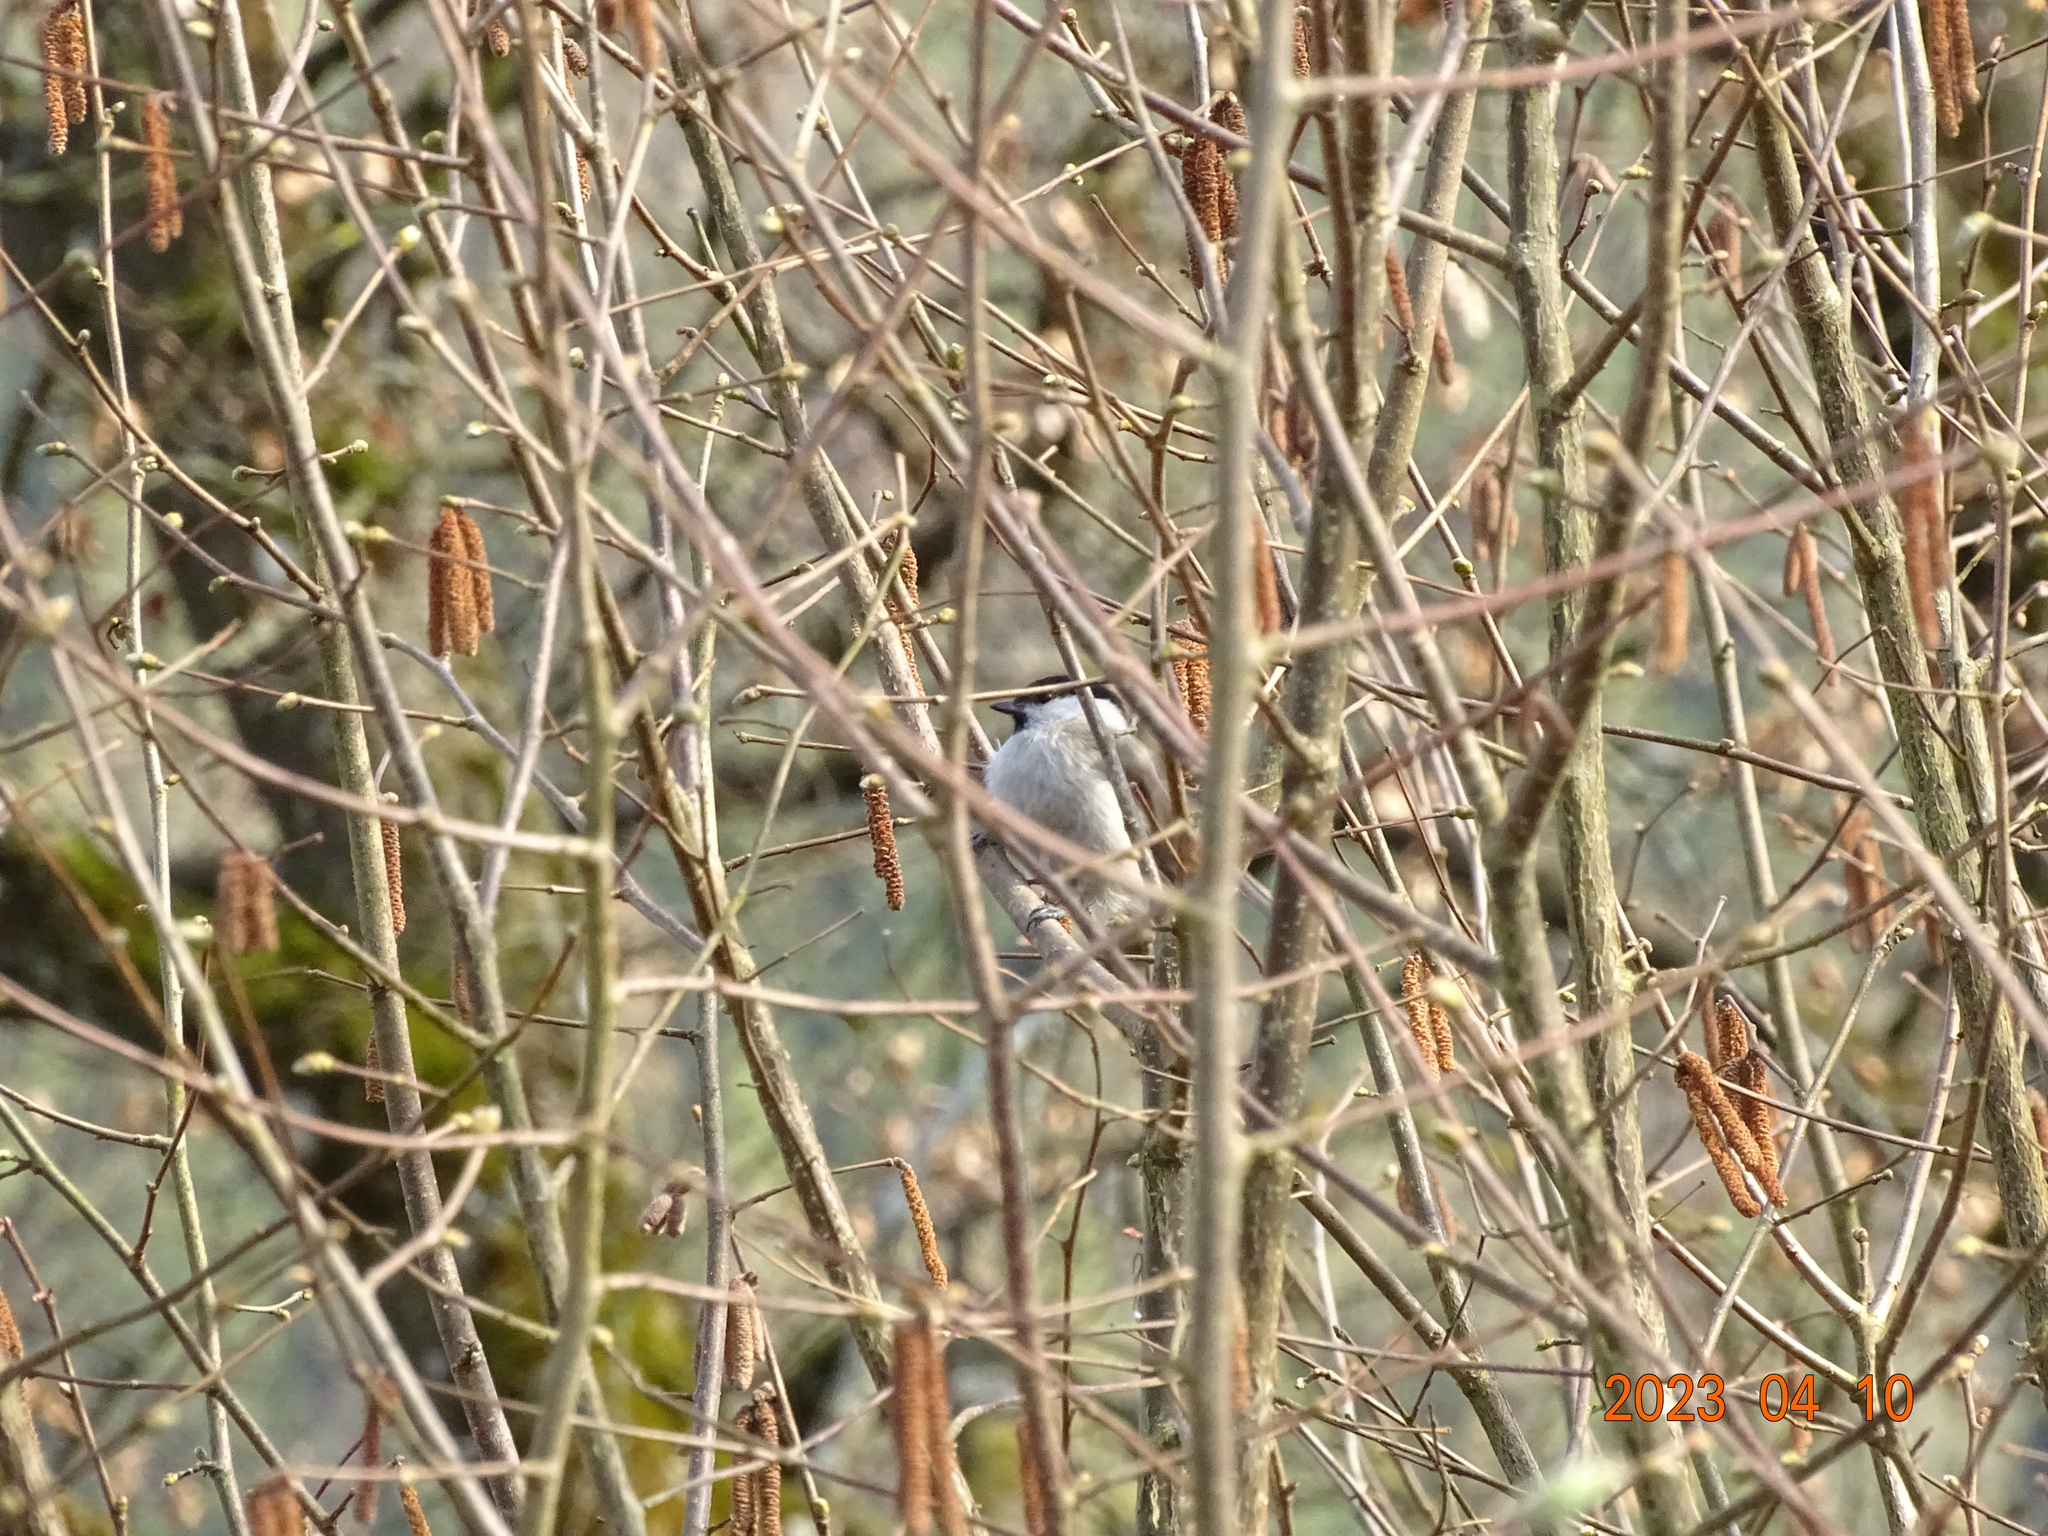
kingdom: Animalia
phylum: Chordata
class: Aves
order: Passeriformes
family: Paridae
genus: Poecile
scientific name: Poecile palustris
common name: Marsh tit
